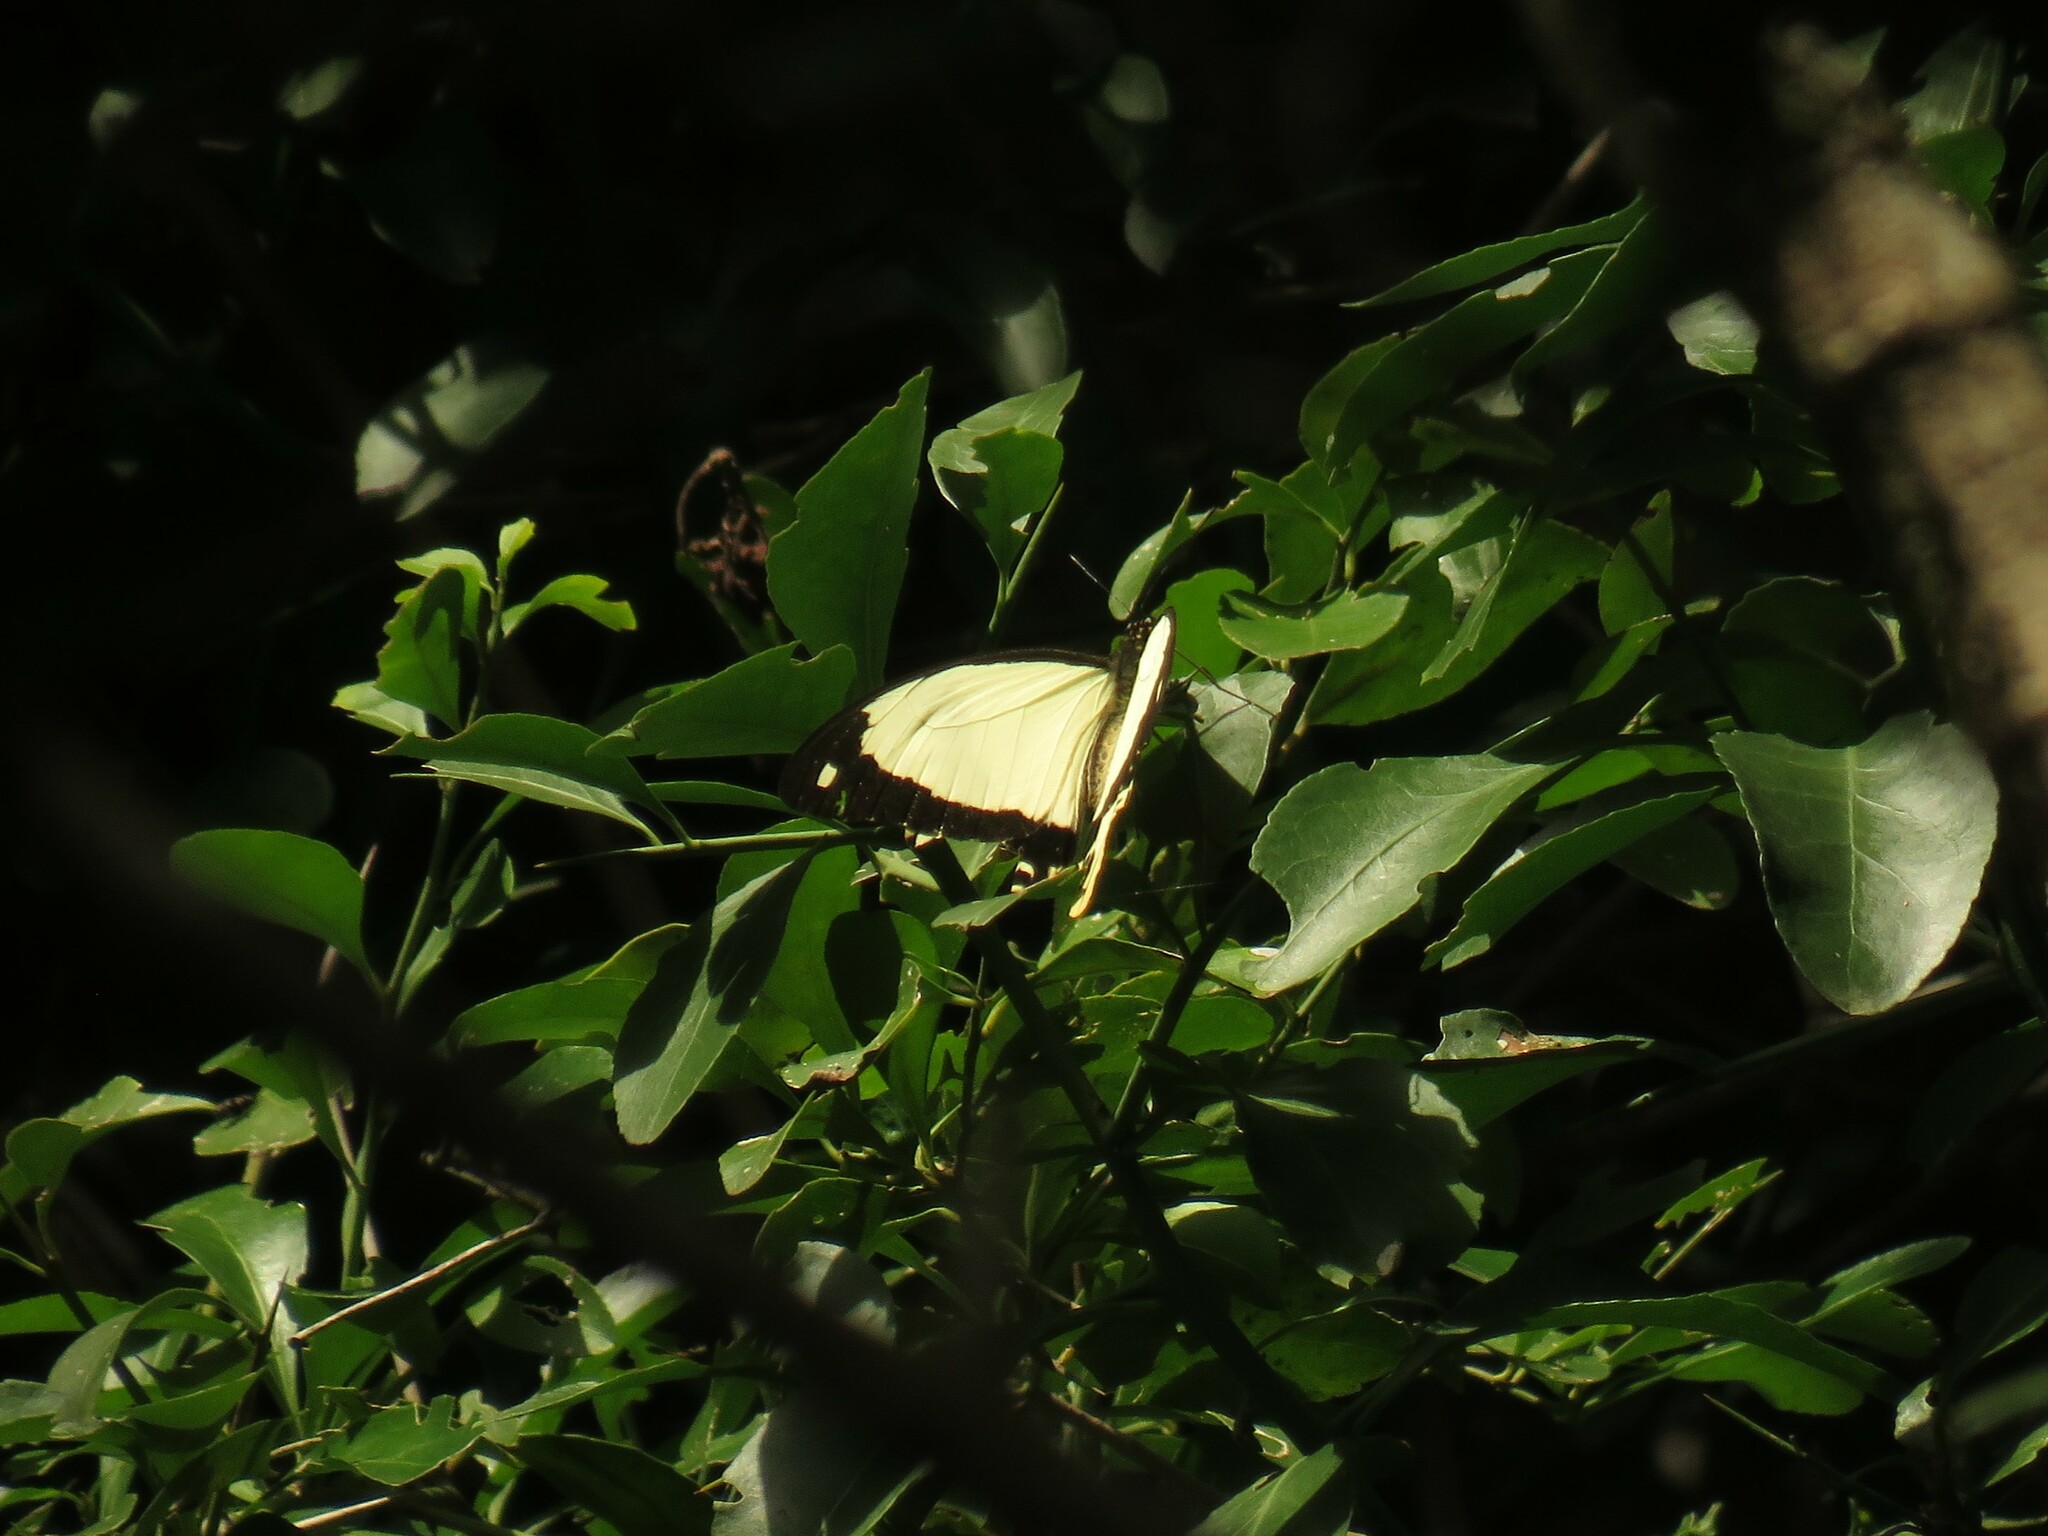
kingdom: Animalia
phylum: Arthropoda
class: Insecta
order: Lepidoptera
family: Papilionidae
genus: Papilio
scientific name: Papilio dardanus
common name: Flying handkerchief
